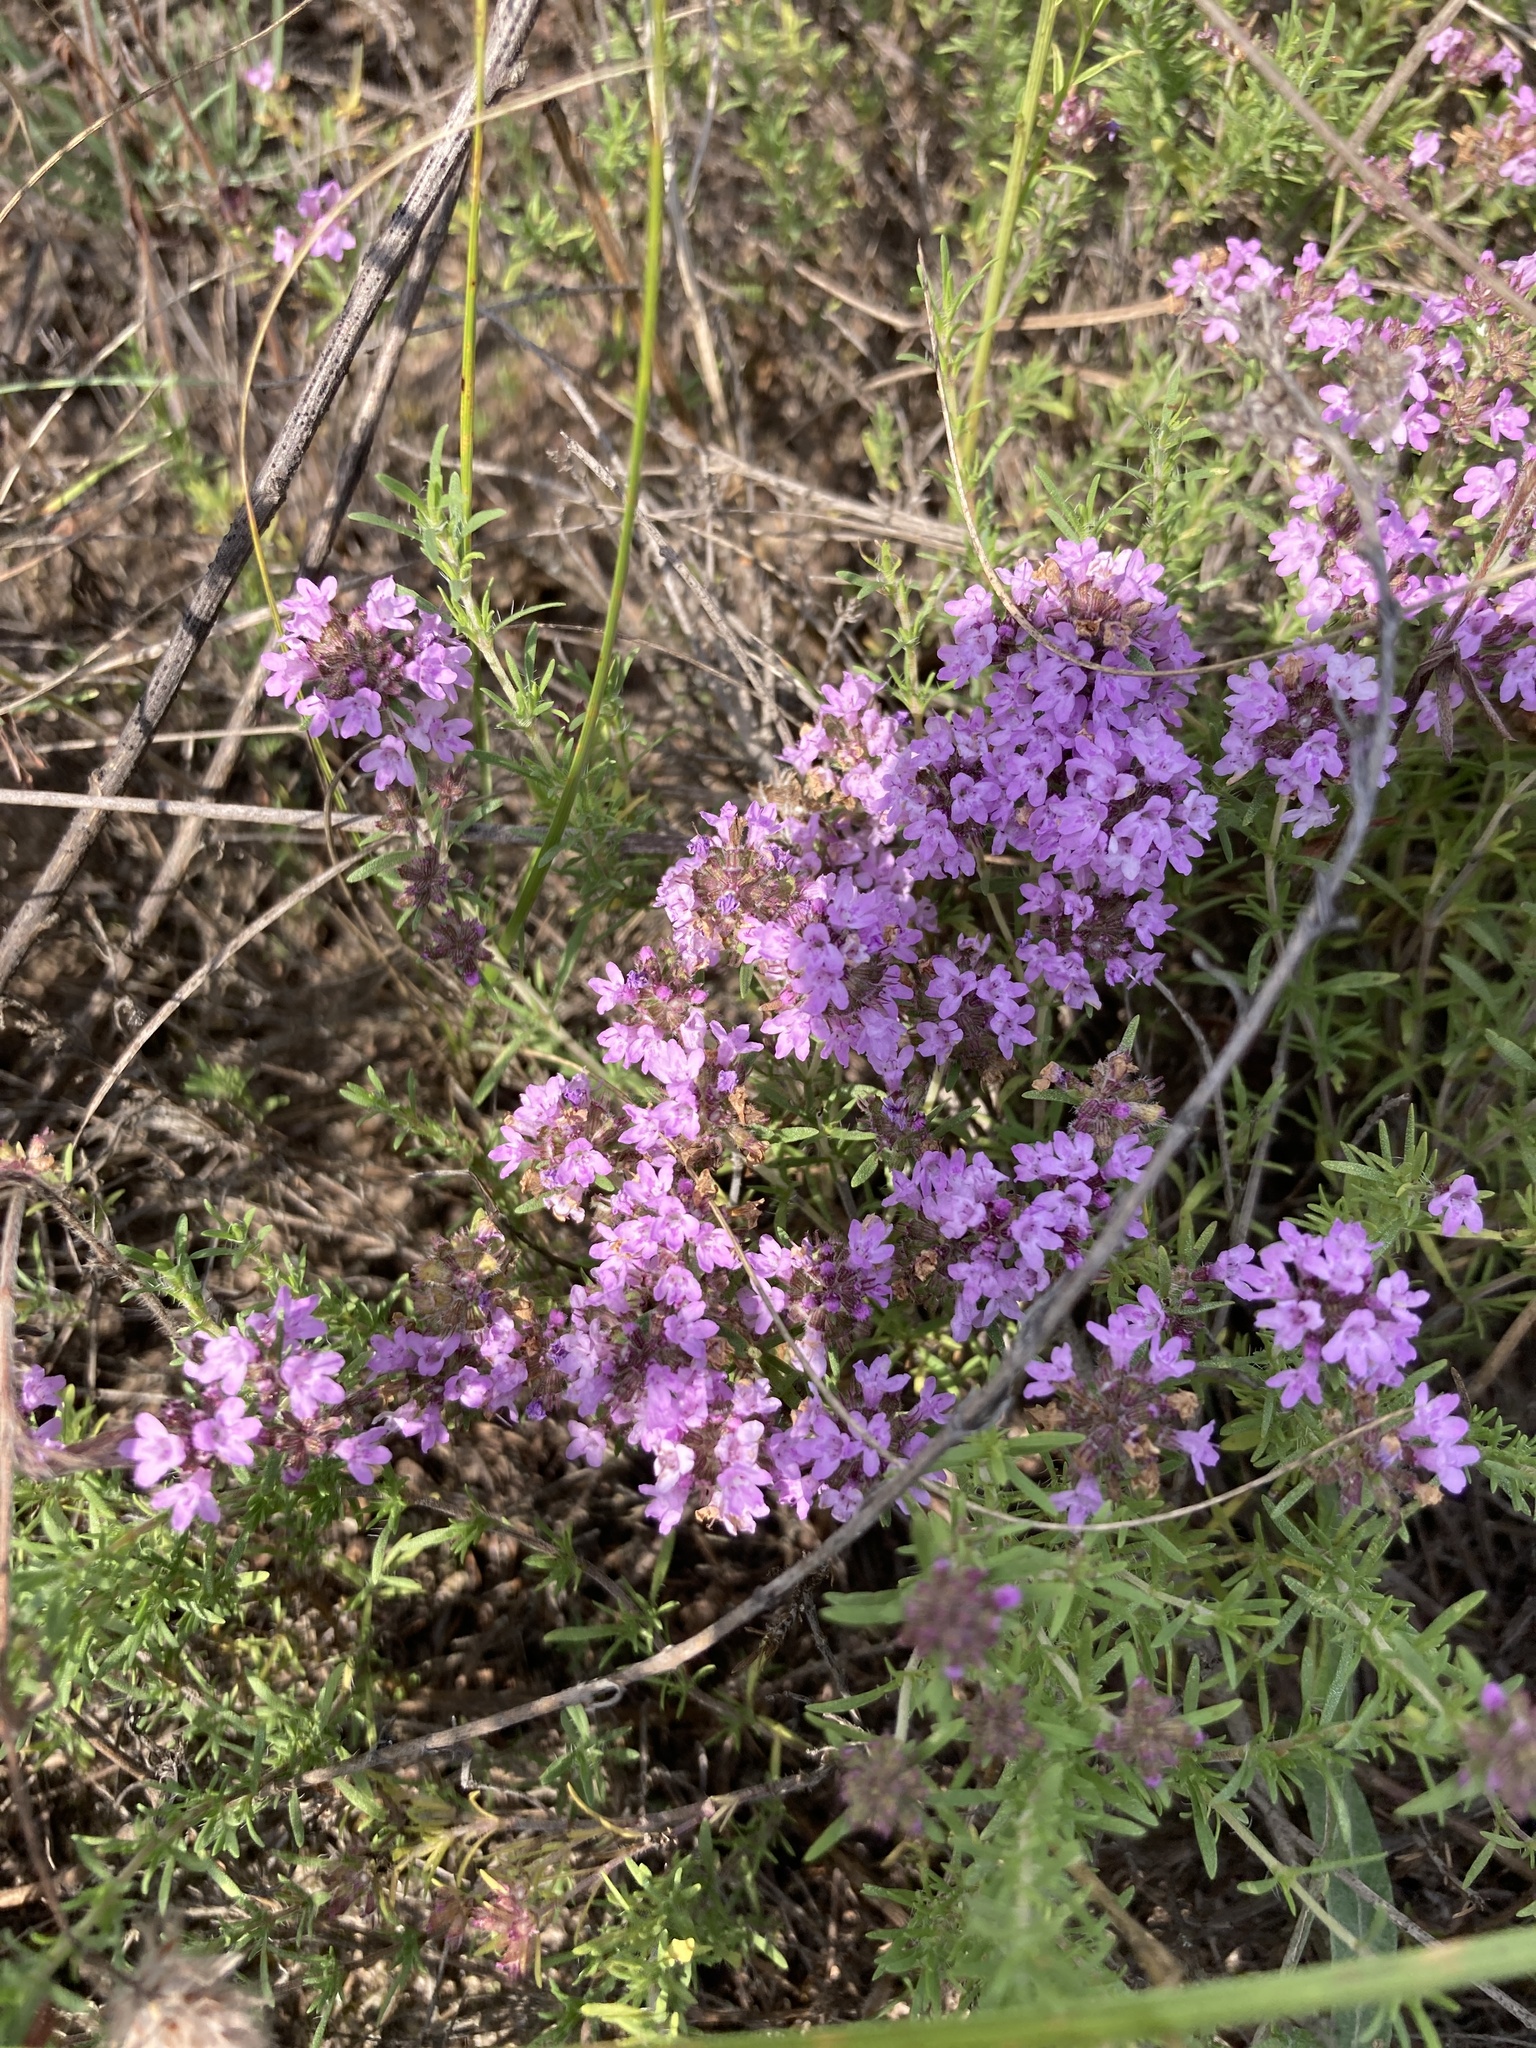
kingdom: Plantae
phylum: Tracheophyta
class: Magnoliopsida
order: Lamiales
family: Lamiaceae
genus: Thymus
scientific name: Thymus pallasianus
